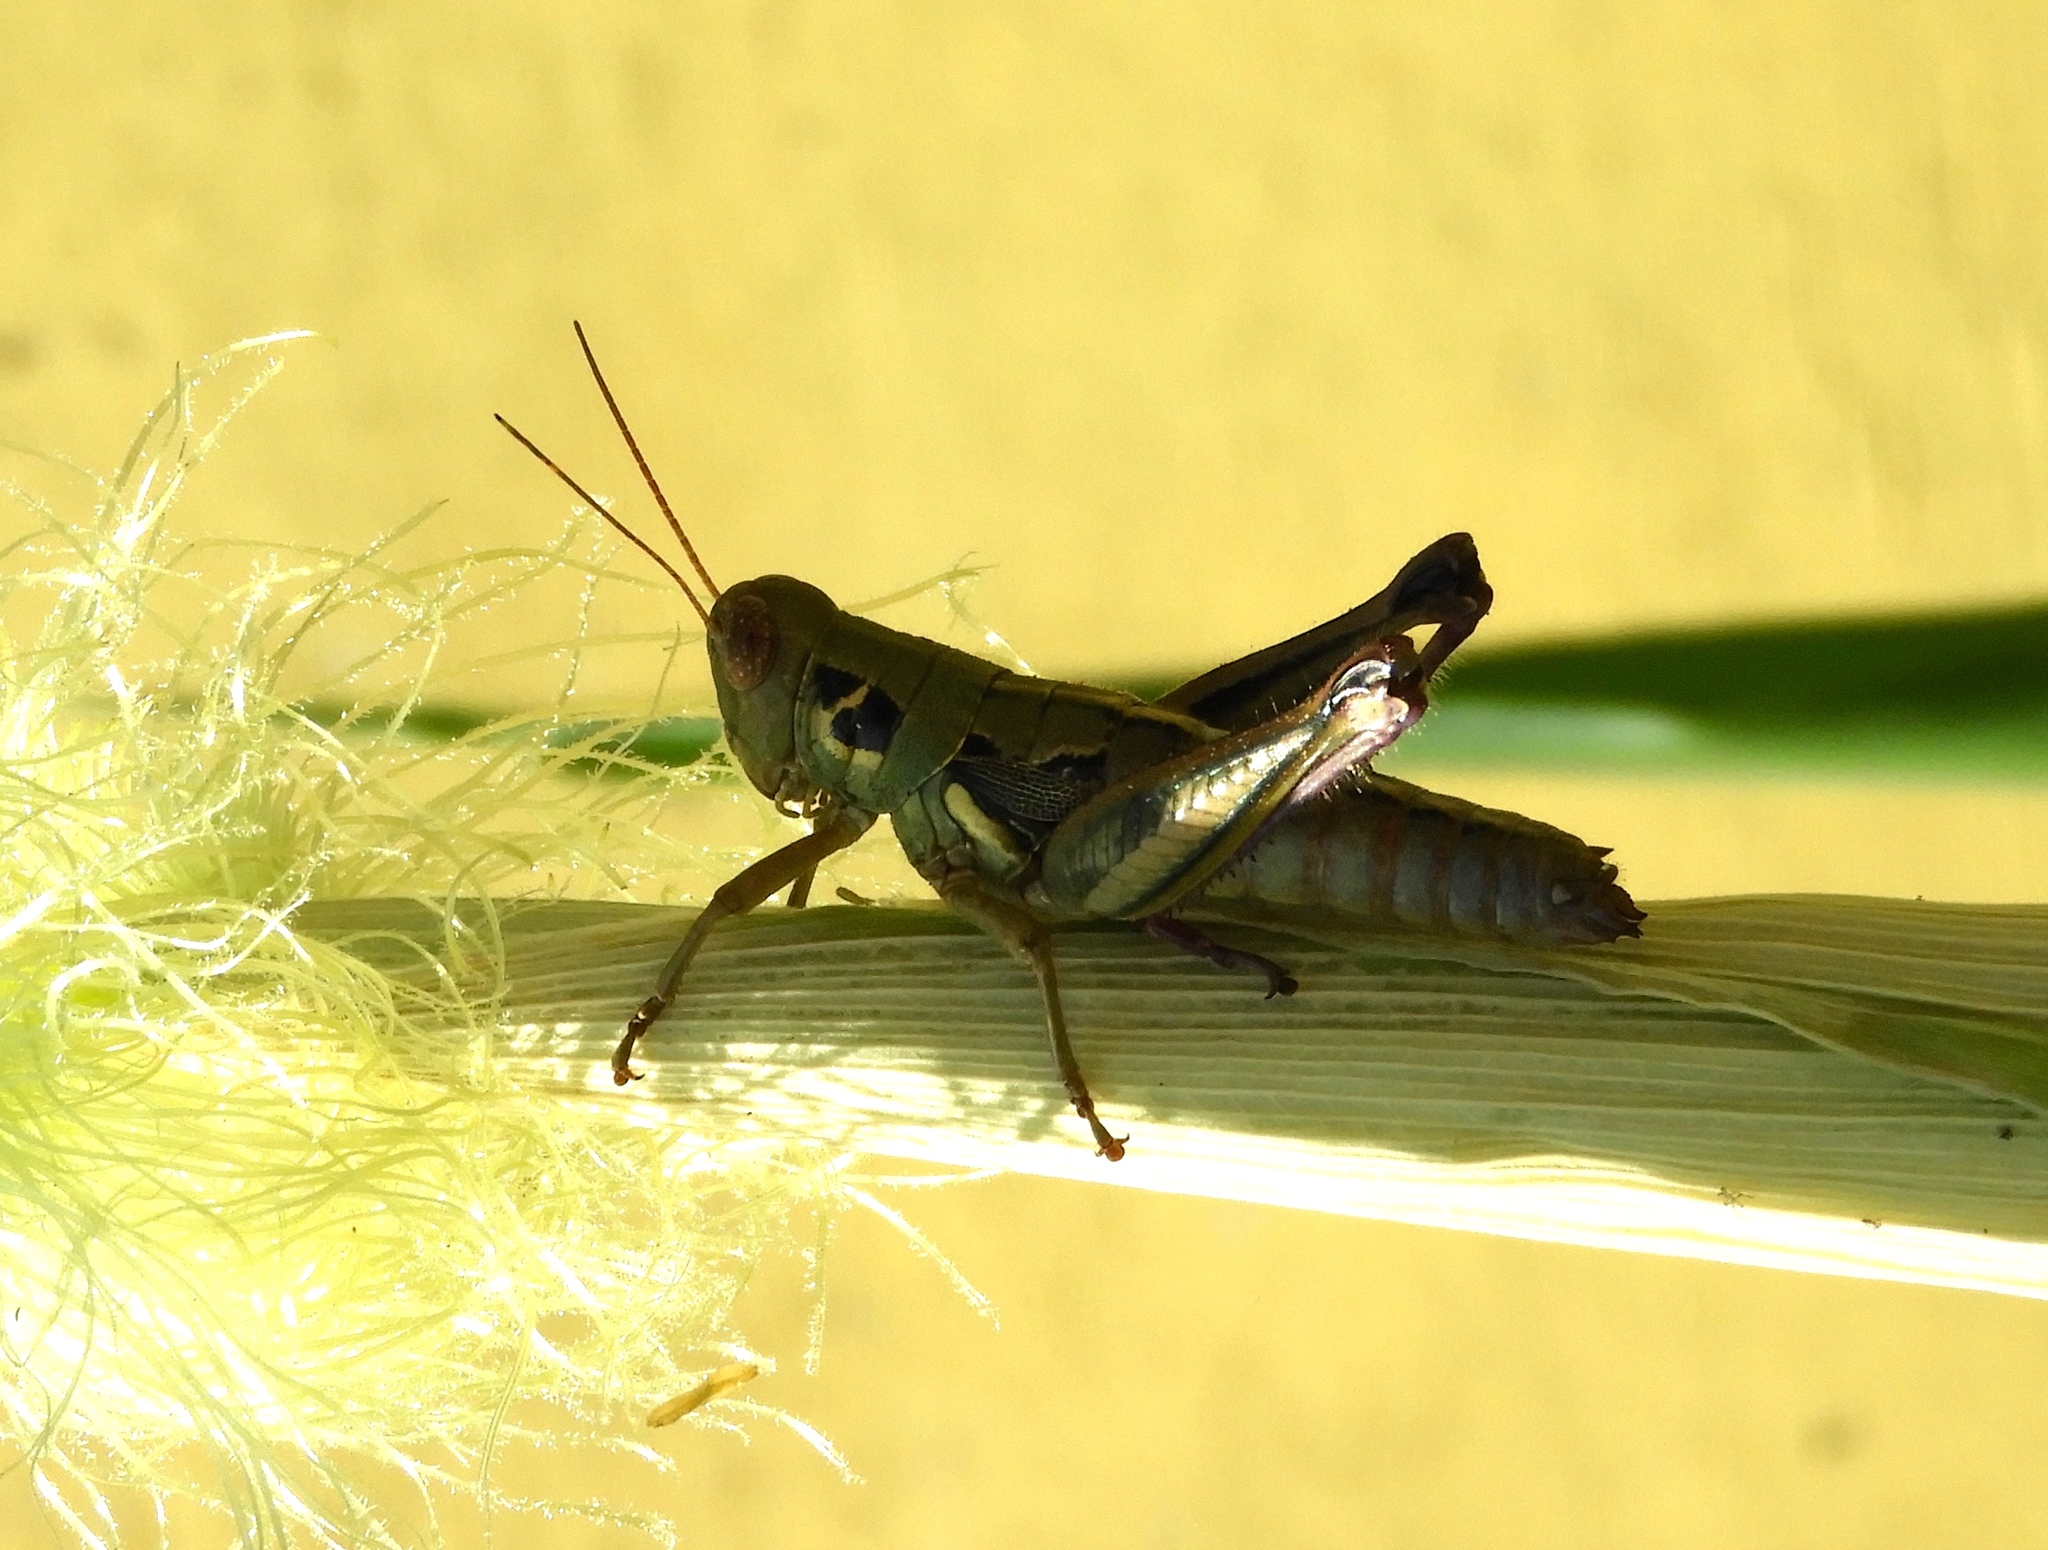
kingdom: Animalia
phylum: Arthropoda
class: Insecta
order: Orthoptera
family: Acrididae
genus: Barytettix
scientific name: Barytettix
